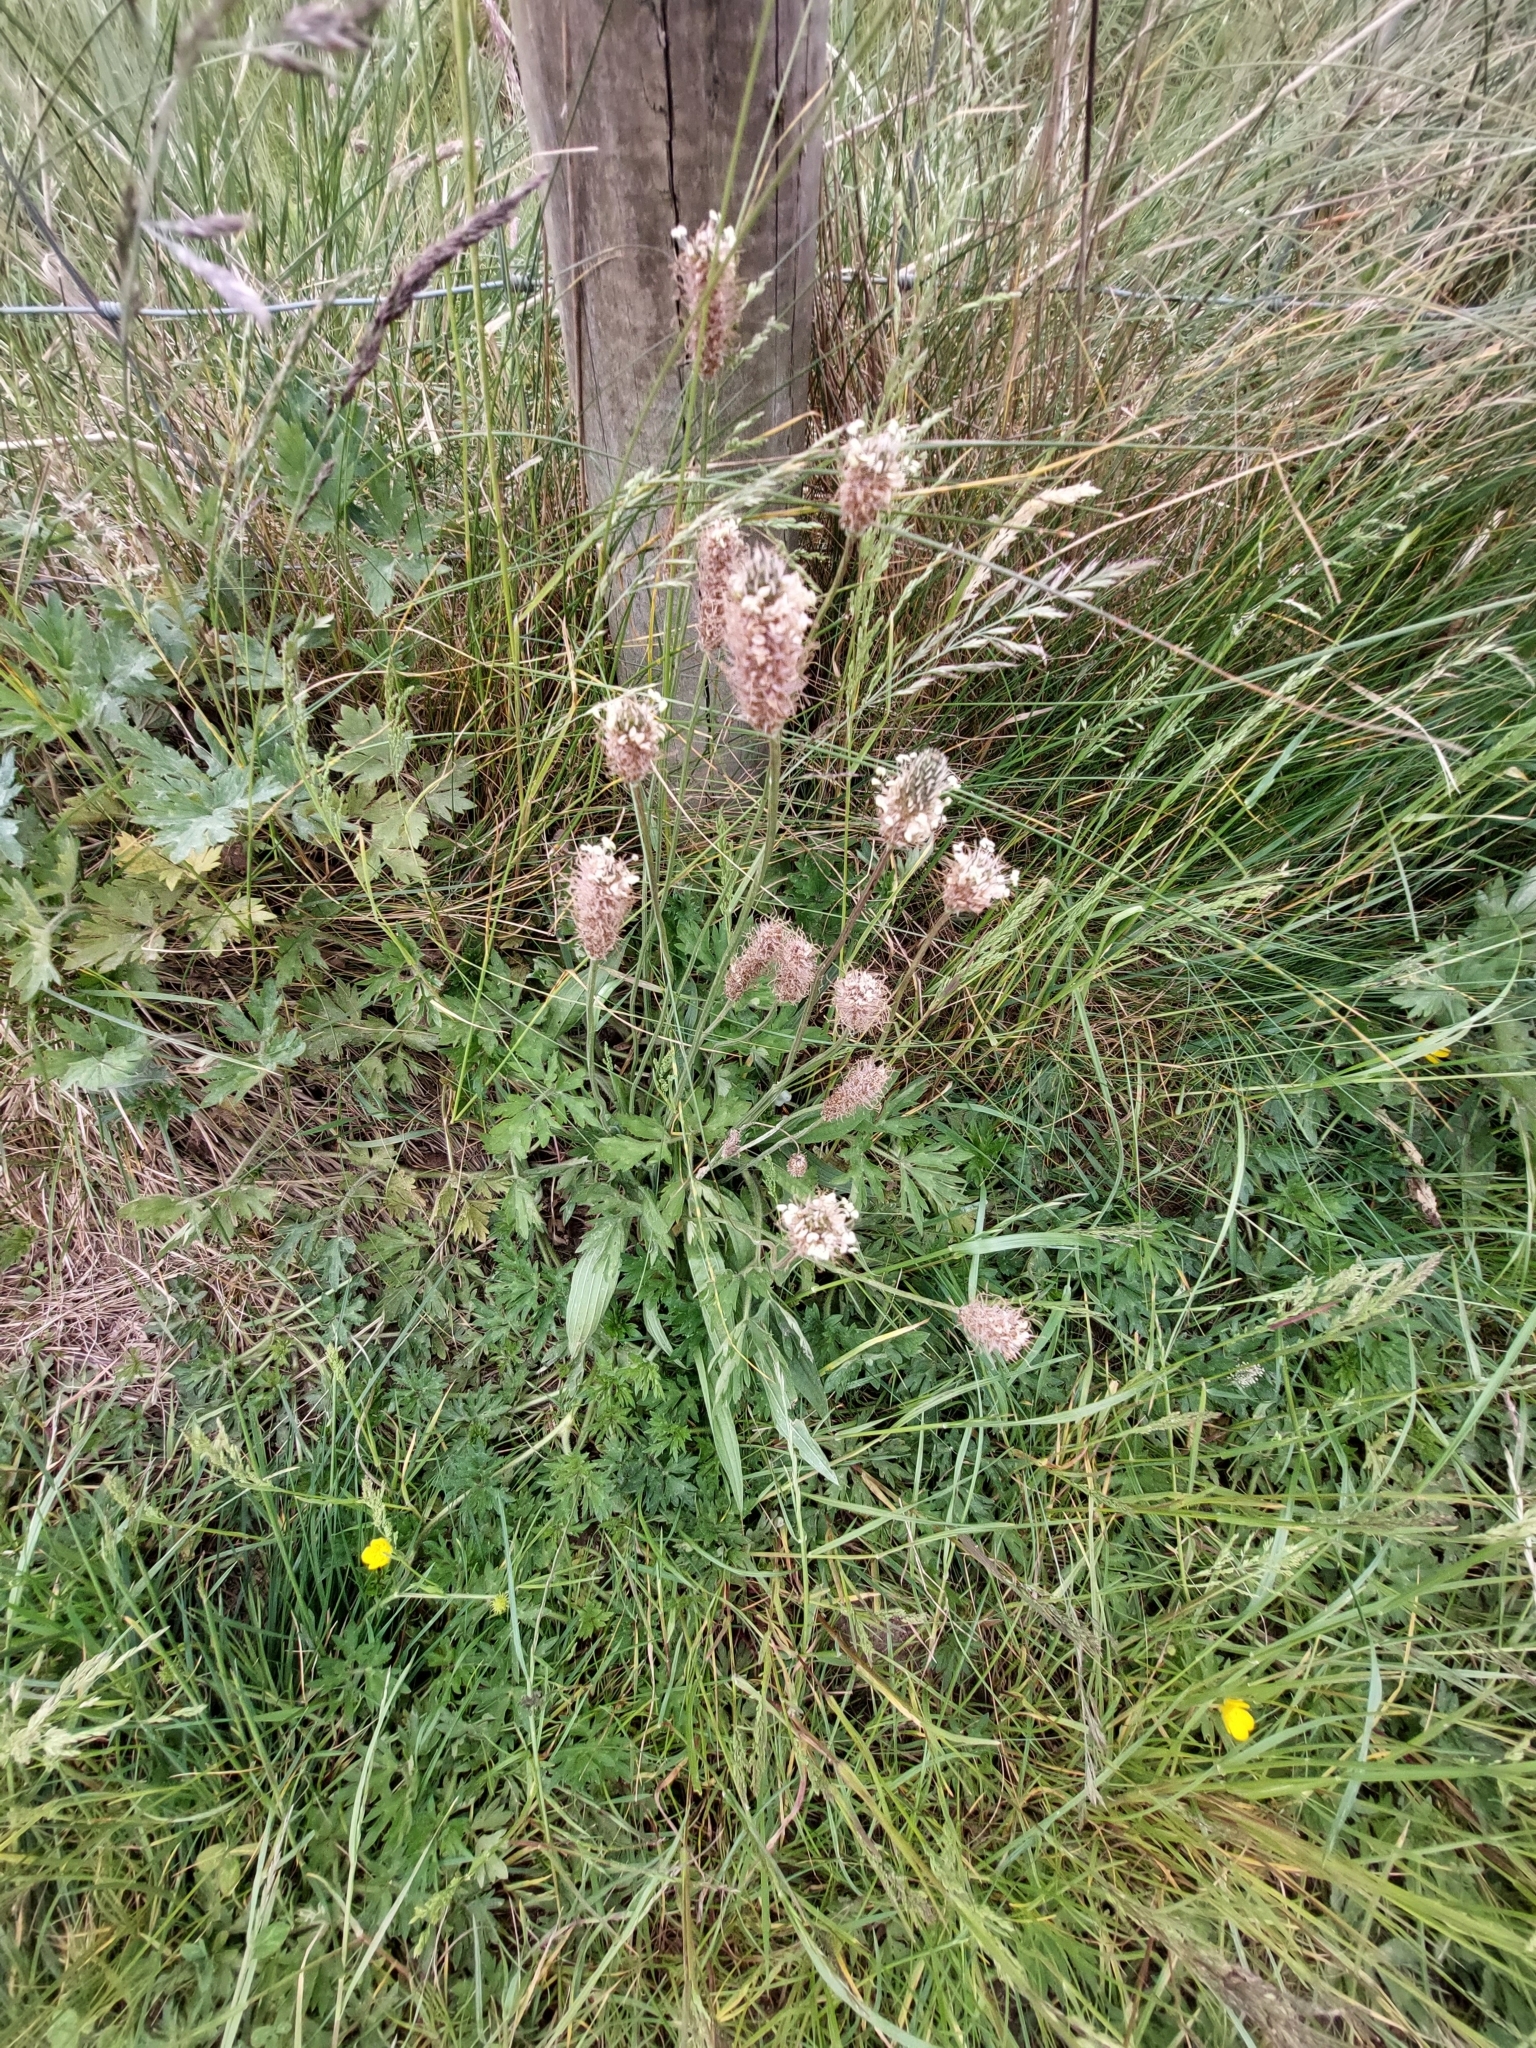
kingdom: Plantae
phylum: Tracheophyta
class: Magnoliopsida
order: Lamiales
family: Plantaginaceae
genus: Plantago
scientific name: Plantago lanceolata
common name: Ribwort plantain
